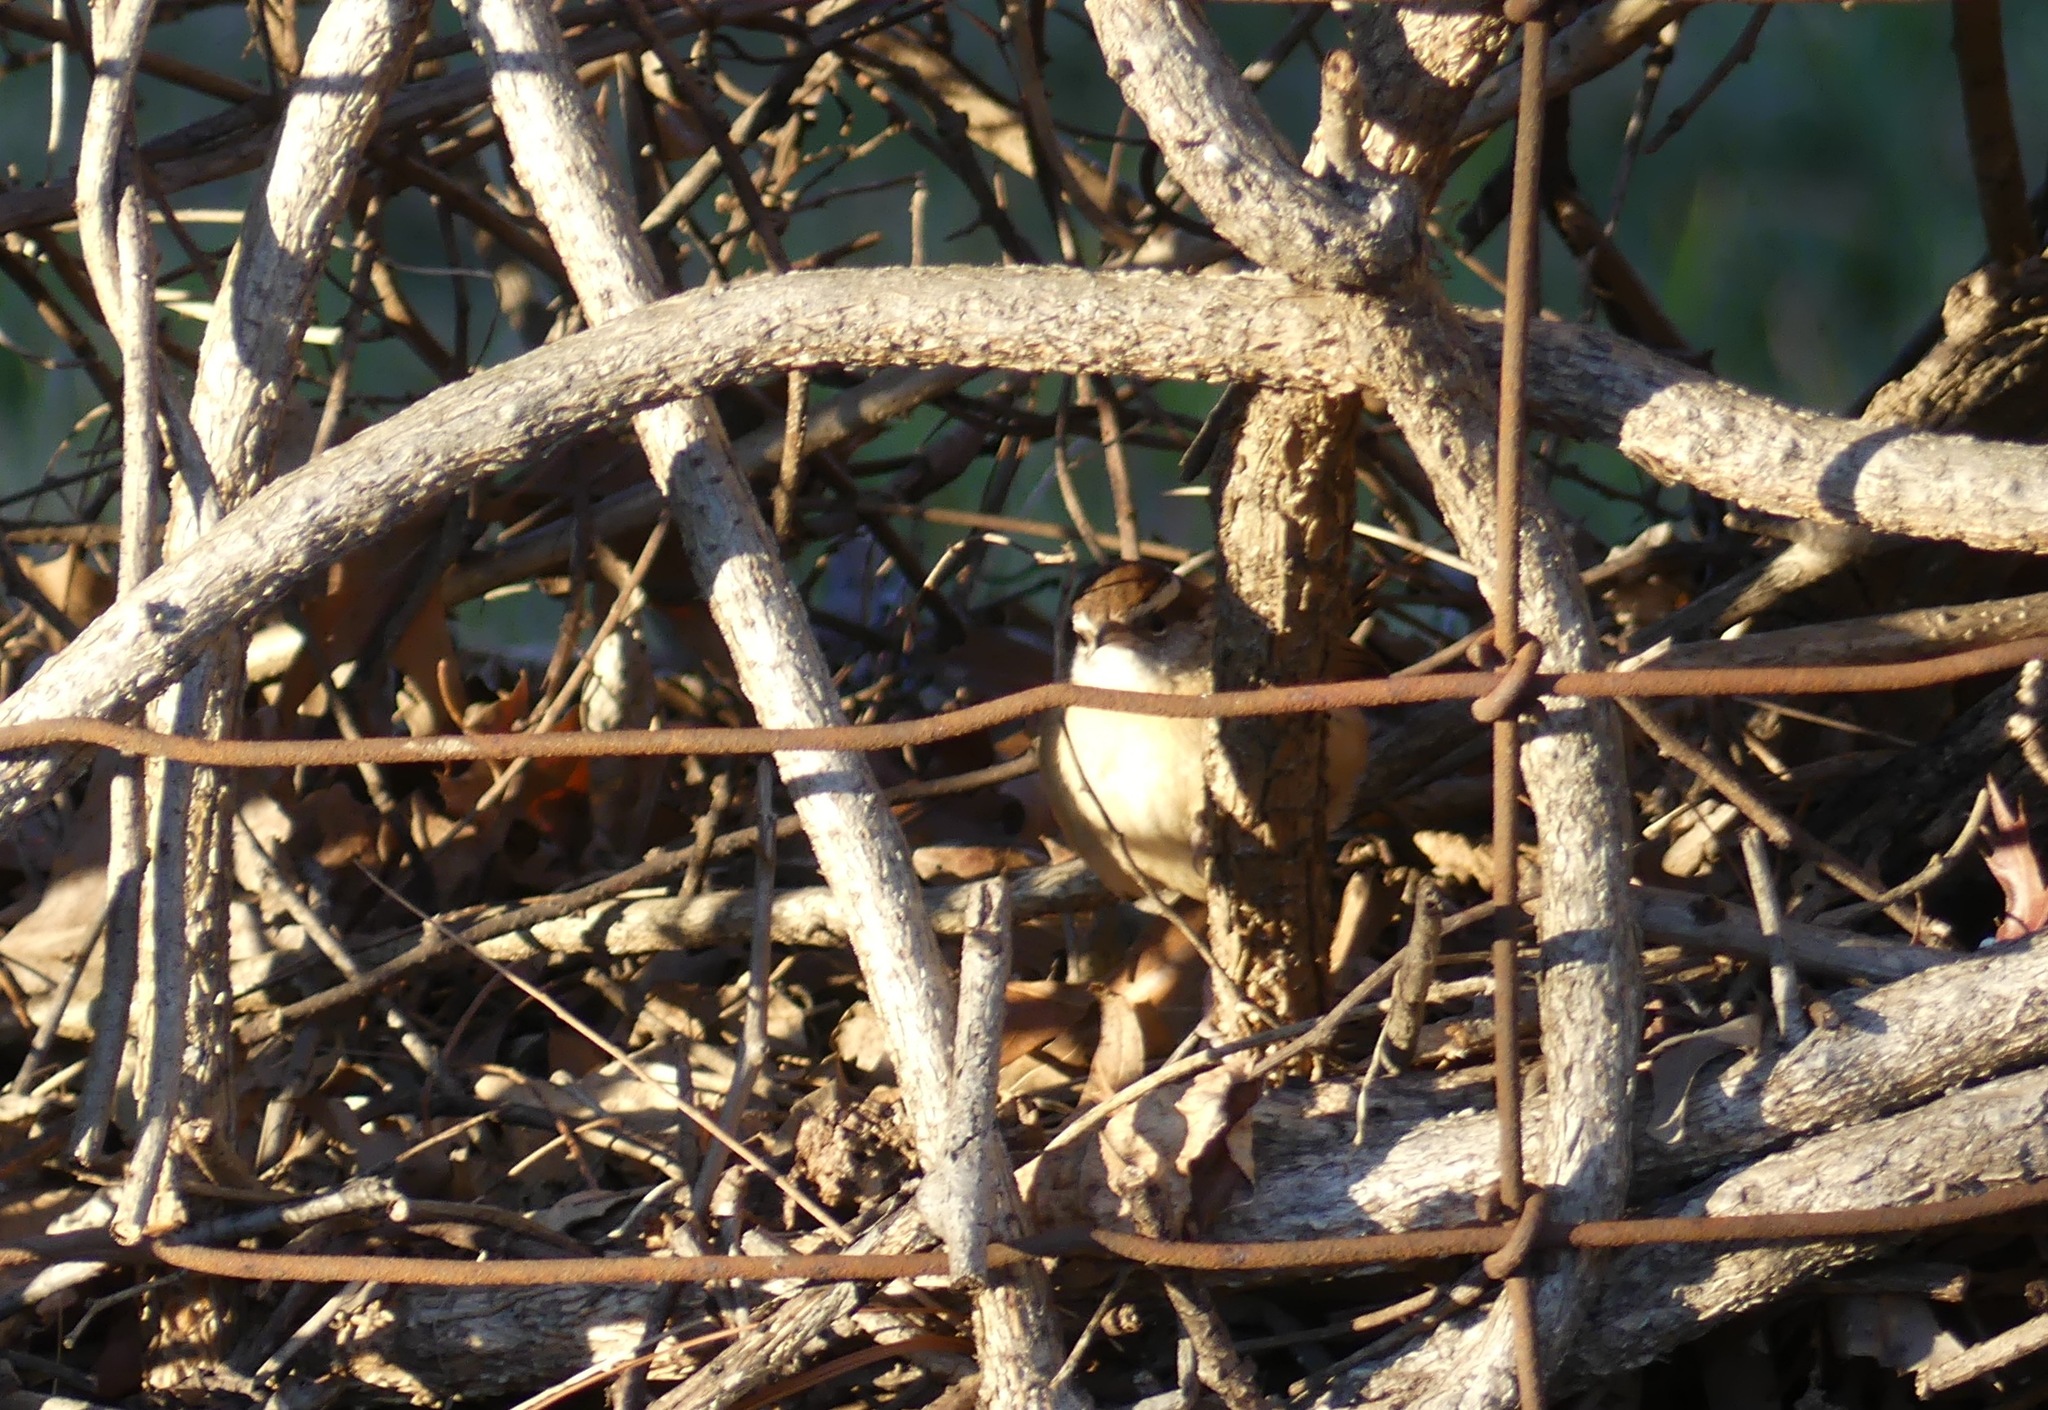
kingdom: Animalia
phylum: Chordata
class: Aves
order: Passeriformes
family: Troglodytidae
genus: Thryothorus
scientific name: Thryothorus ludovicianus
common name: Carolina wren
